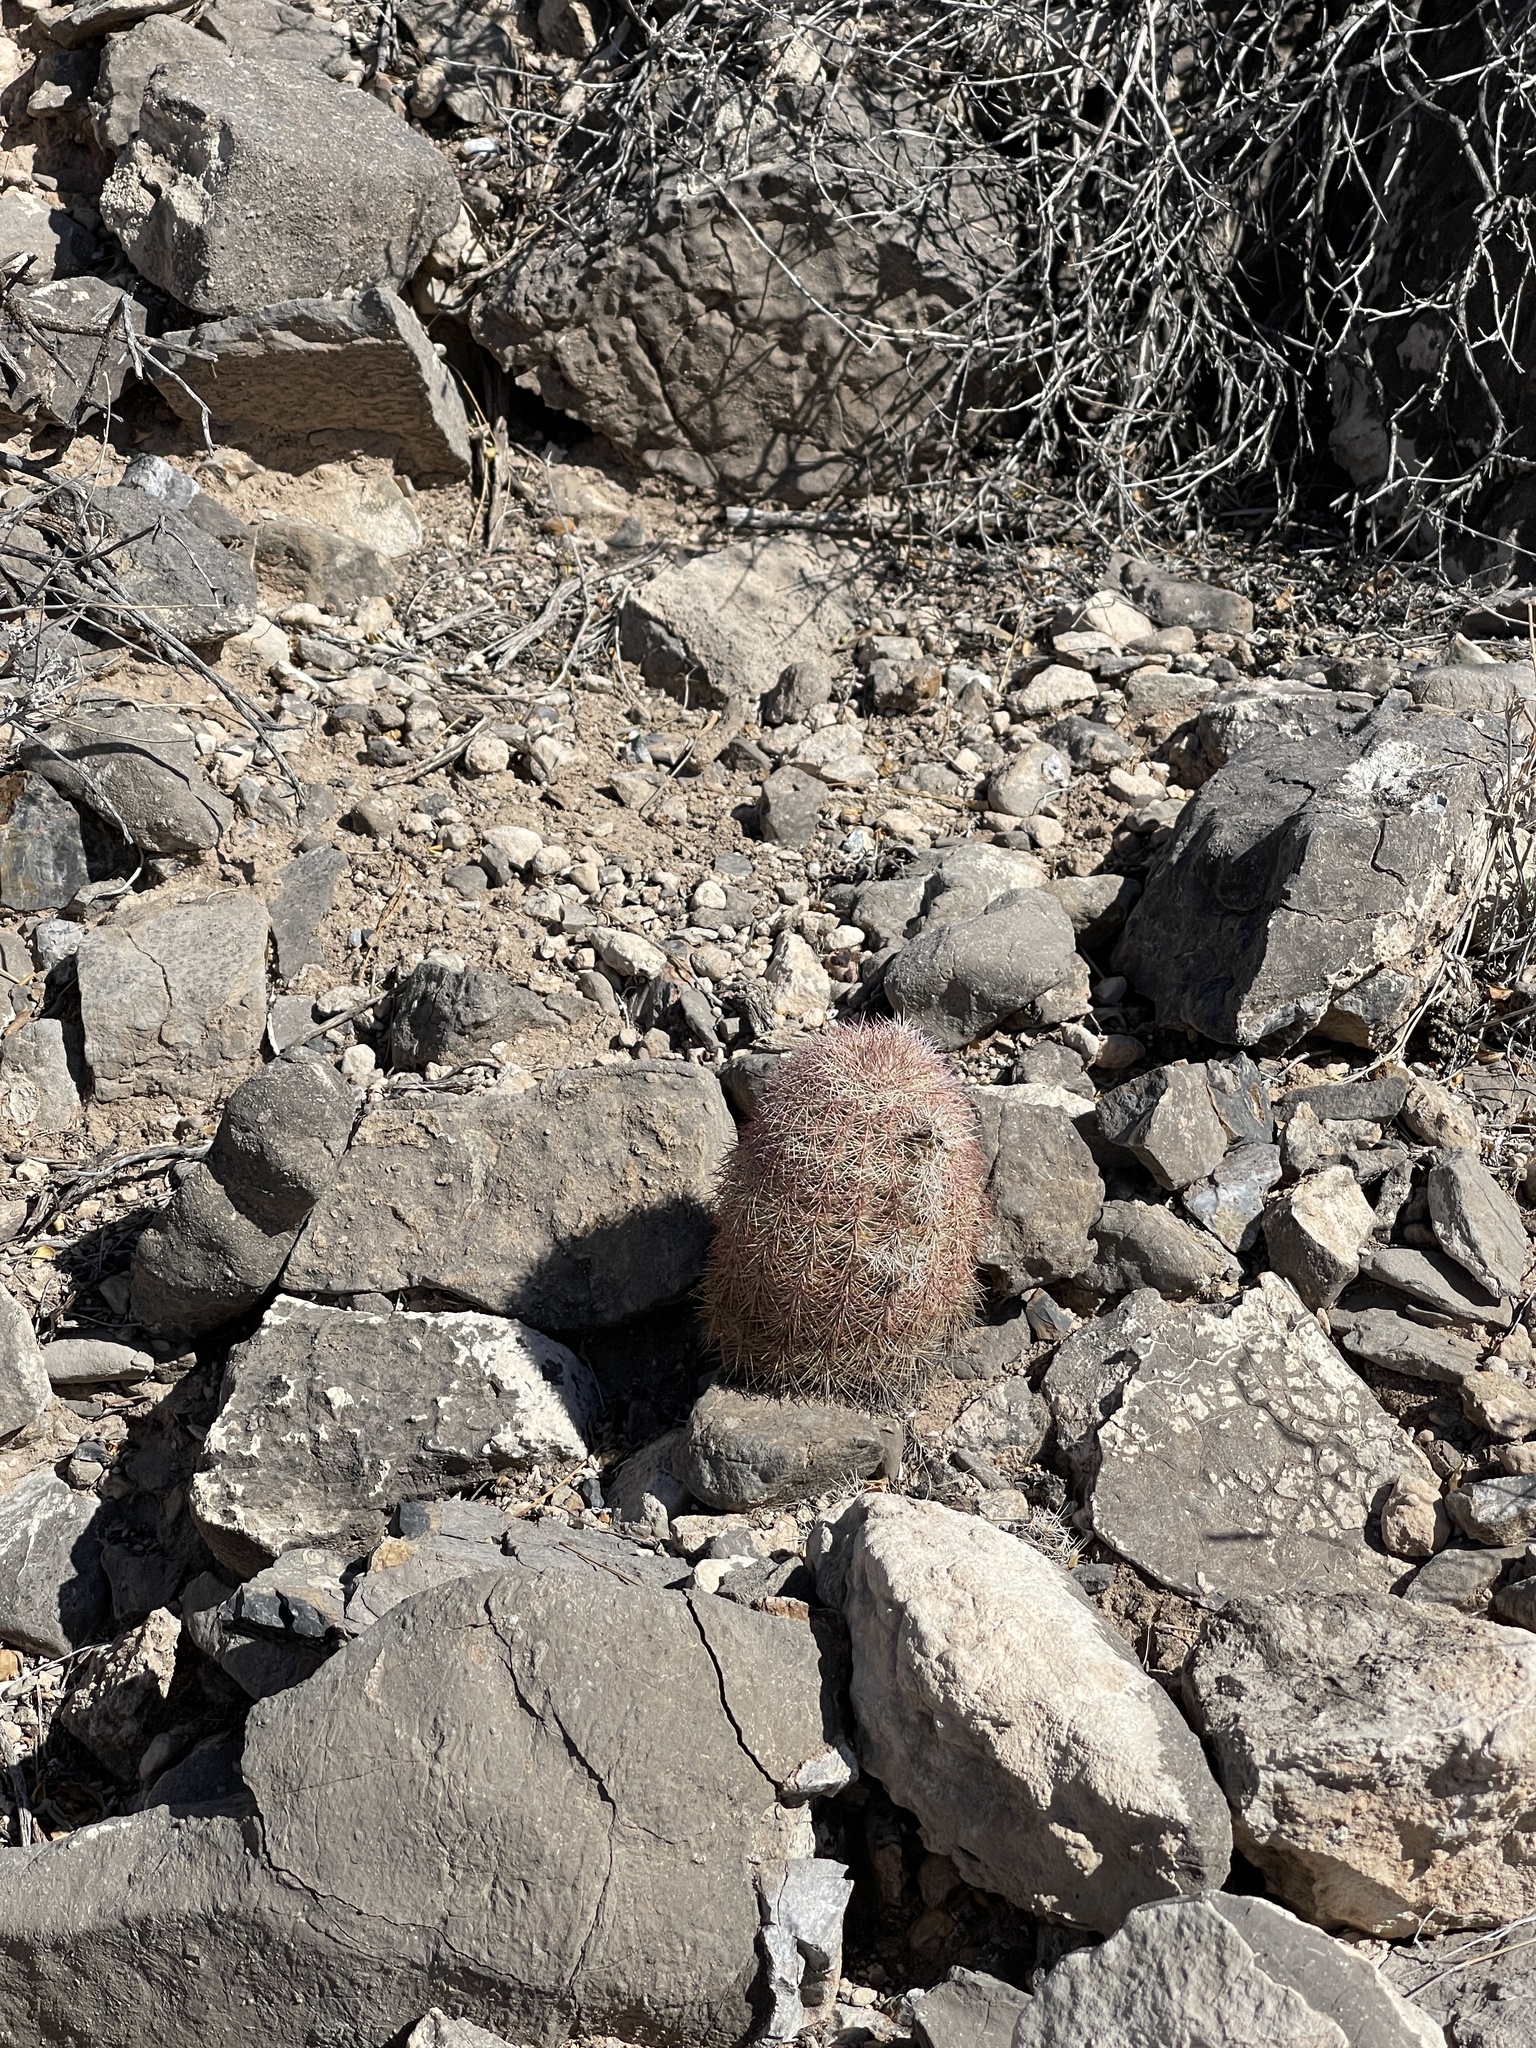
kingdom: Plantae
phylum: Tracheophyta
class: Magnoliopsida
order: Caryophyllales
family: Cactaceae
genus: Echinocereus
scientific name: Echinocereus dasyacanthus
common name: Spiny hedgehog cactus
